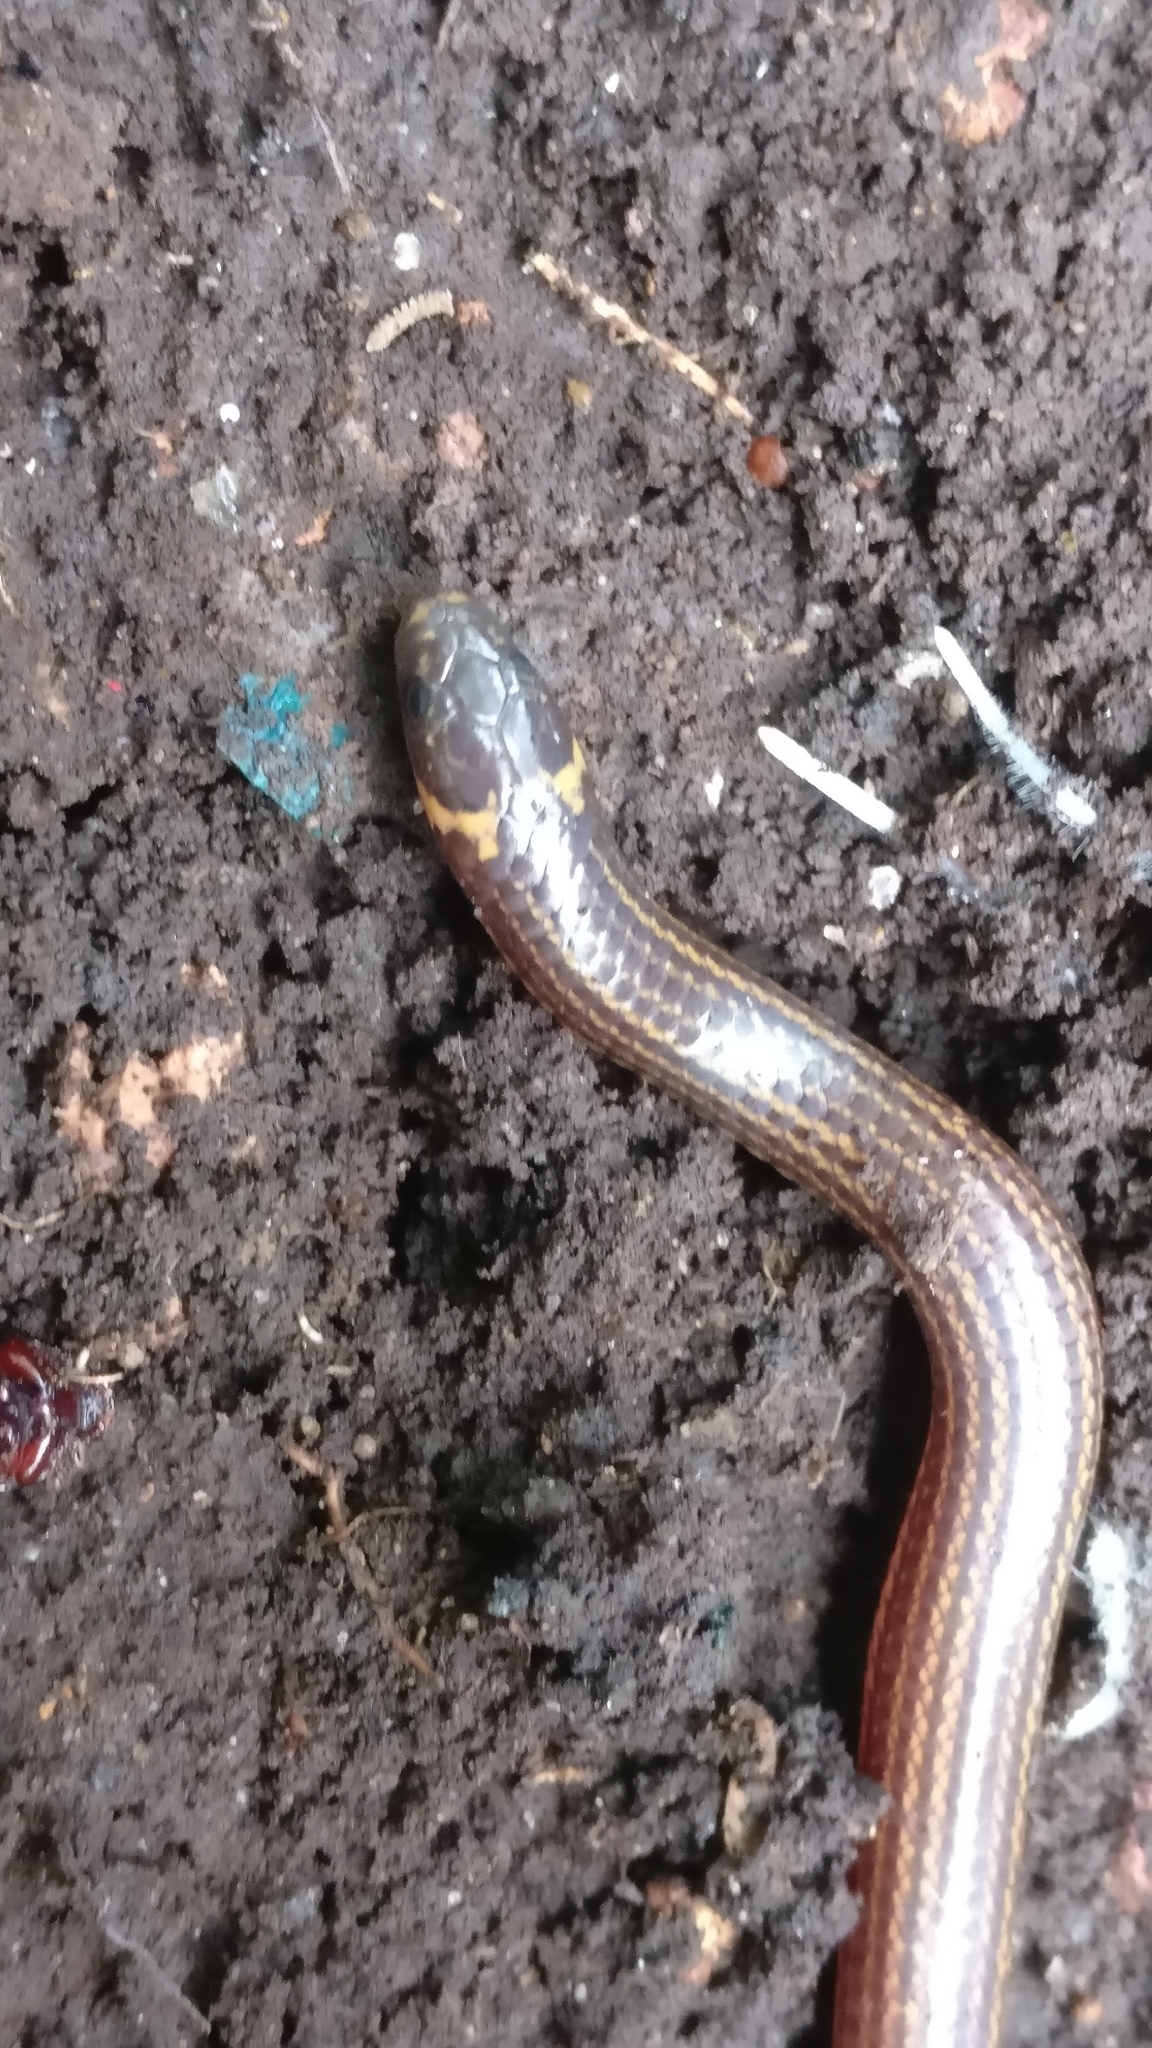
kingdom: Animalia
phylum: Chordata
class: Squamata
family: Uropeltidae
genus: Platyplectrurus
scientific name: Platyplectrurus madurensis
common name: Travancore hills thorntail snake
